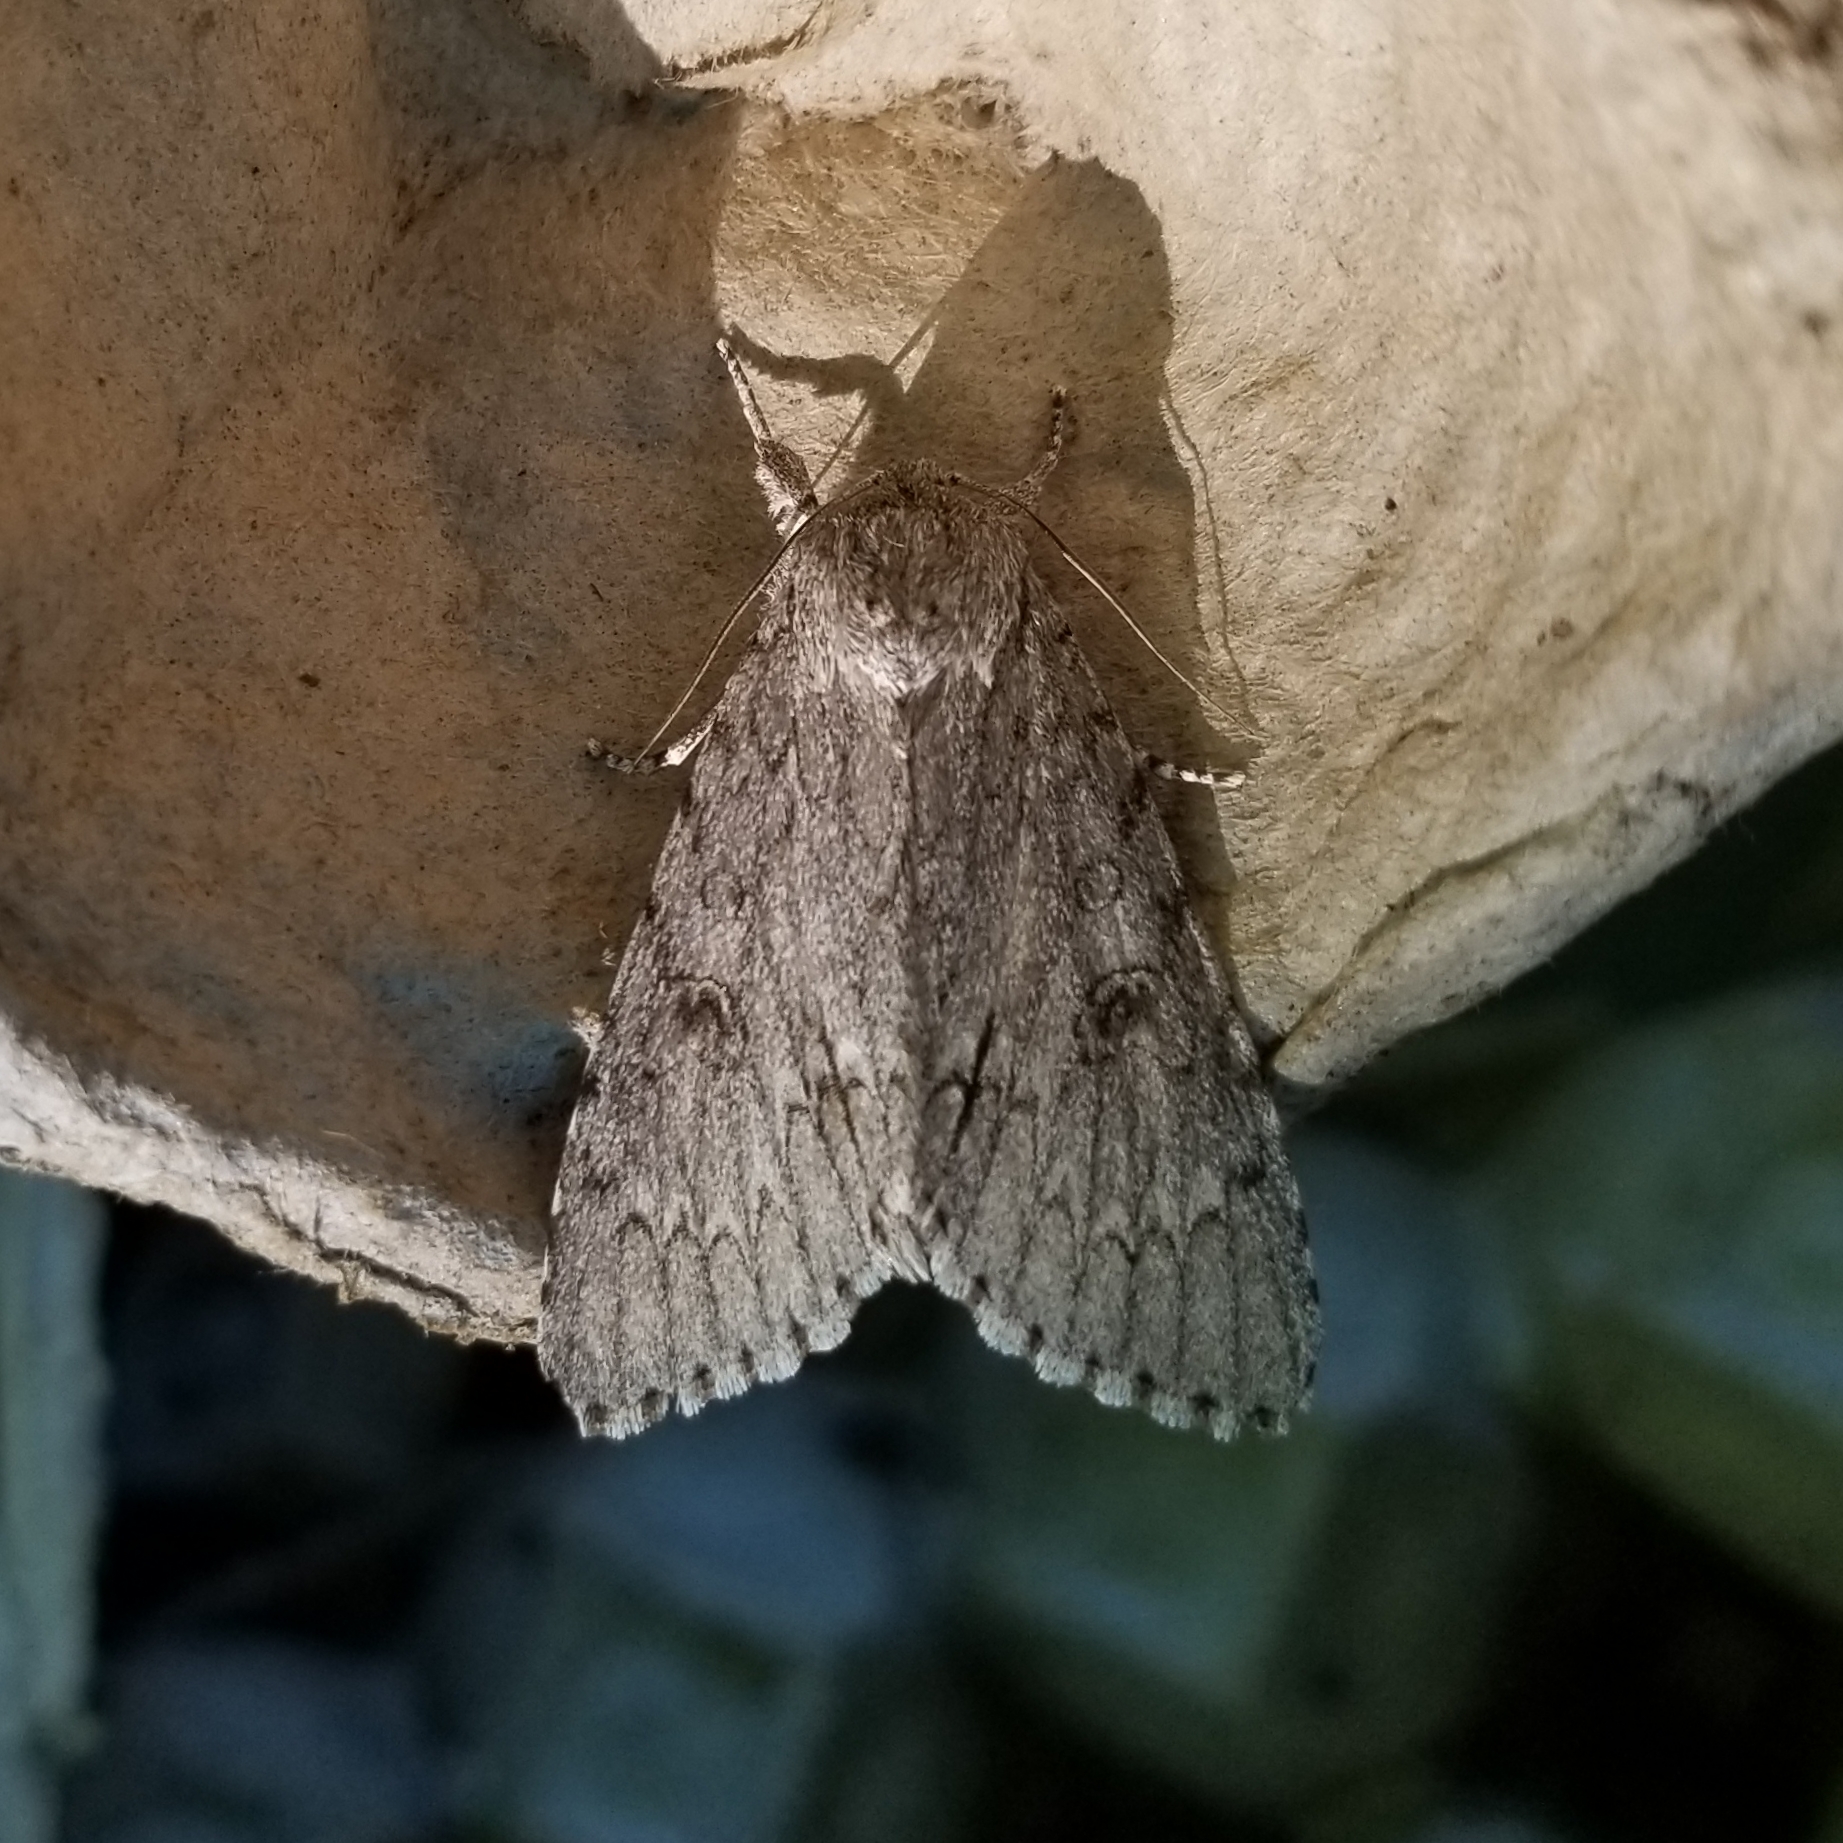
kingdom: Animalia
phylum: Arthropoda
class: Insecta
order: Lepidoptera
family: Noctuidae
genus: Acronicta
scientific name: Acronicta americana
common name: American dagger
